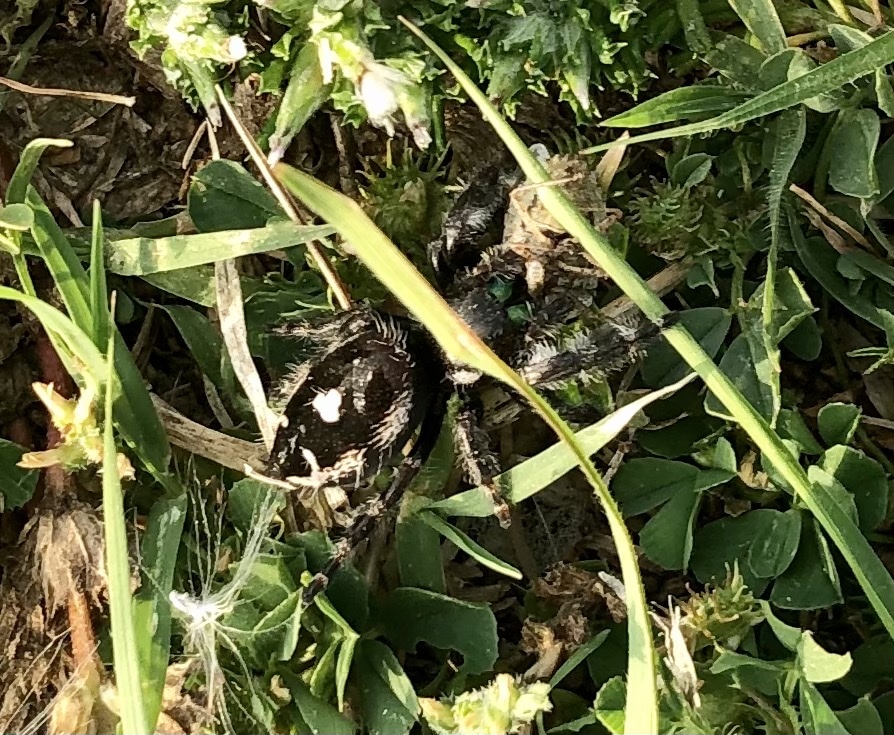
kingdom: Animalia
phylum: Arthropoda
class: Arachnida
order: Araneae
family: Salticidae
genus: Phidippus
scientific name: Phidippus audax
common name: Bold jumper
